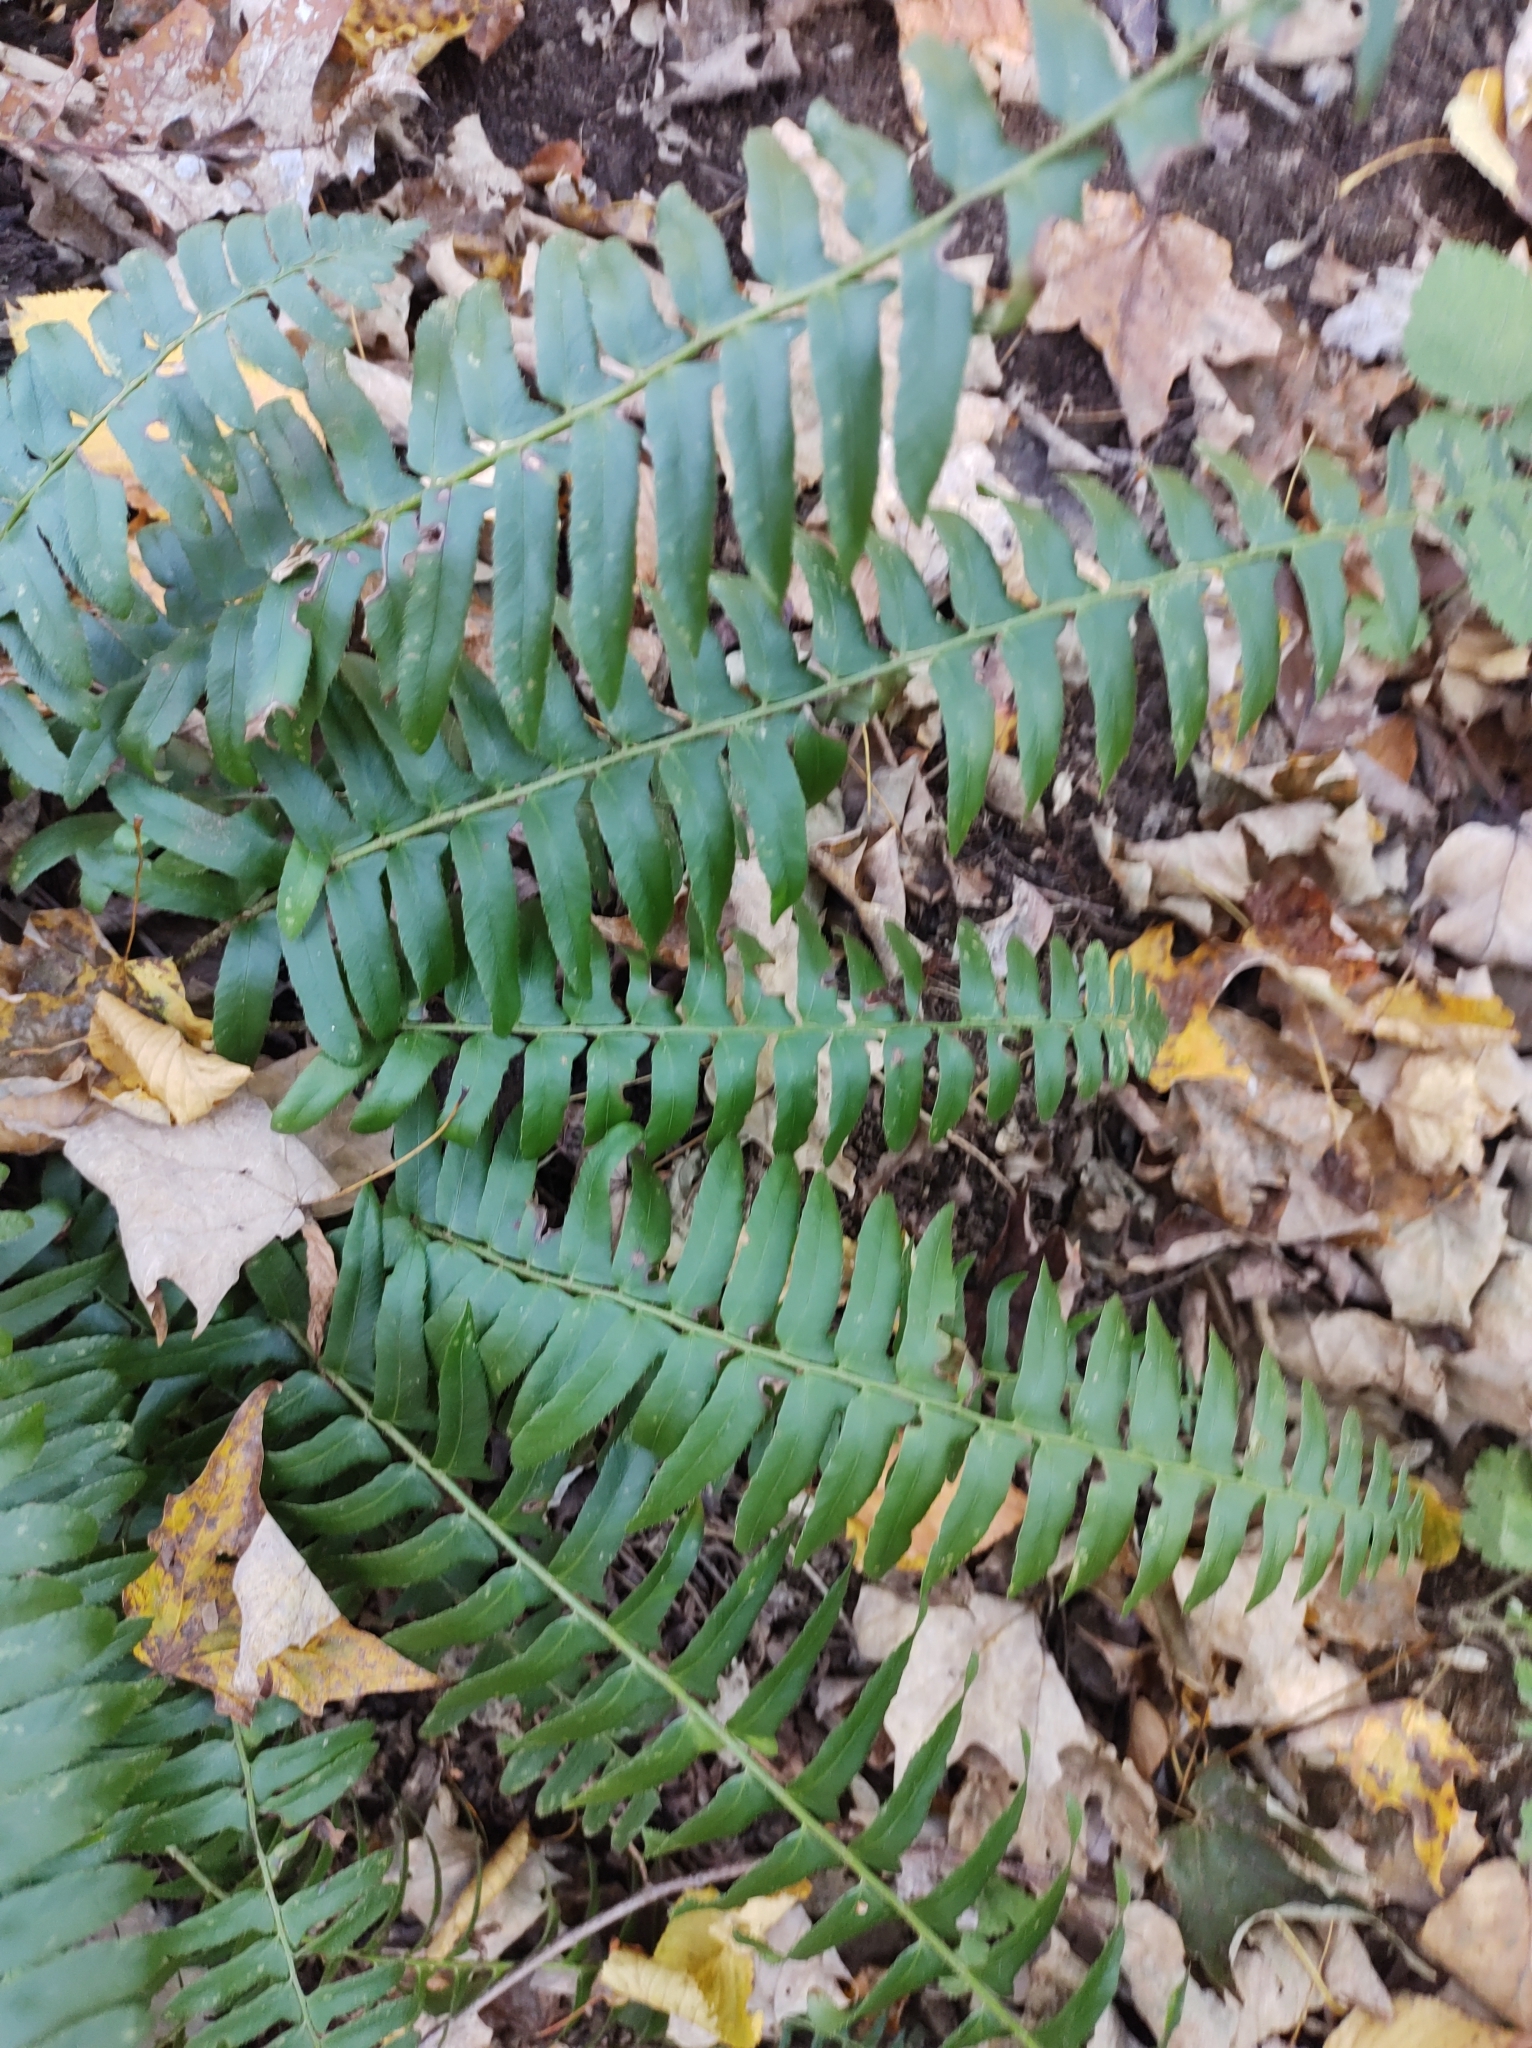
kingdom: Plantae
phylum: Tracheophyta
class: Polypodiopsida
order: Polypodiales
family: Dryopteridaceae
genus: Polystichum
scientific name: Polystichum acrostichoides
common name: Christmas fern
